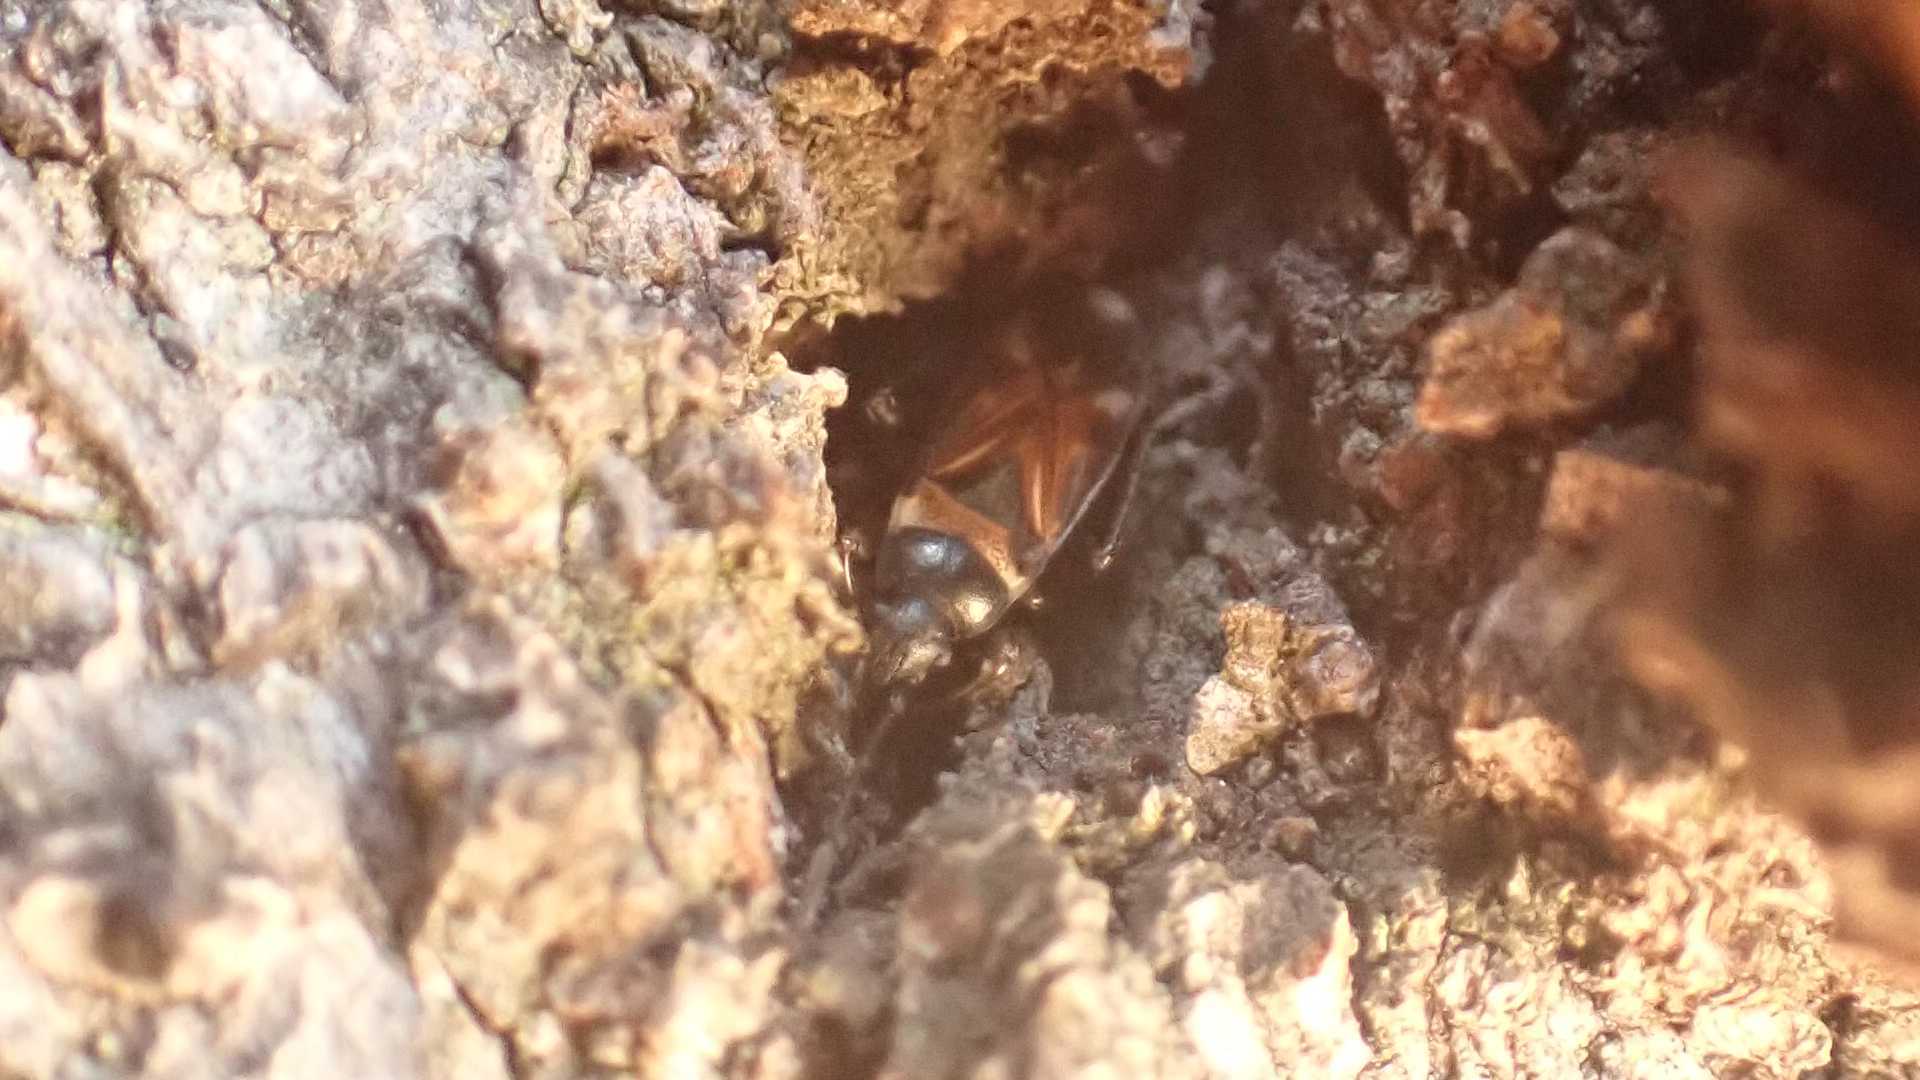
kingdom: Animalia
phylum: Arthropoda
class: Insecta
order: Hemiptera
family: Rhyparochromidae
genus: Raglius
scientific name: Raglius alboacuminatus
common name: Dirt-colored seed bug
